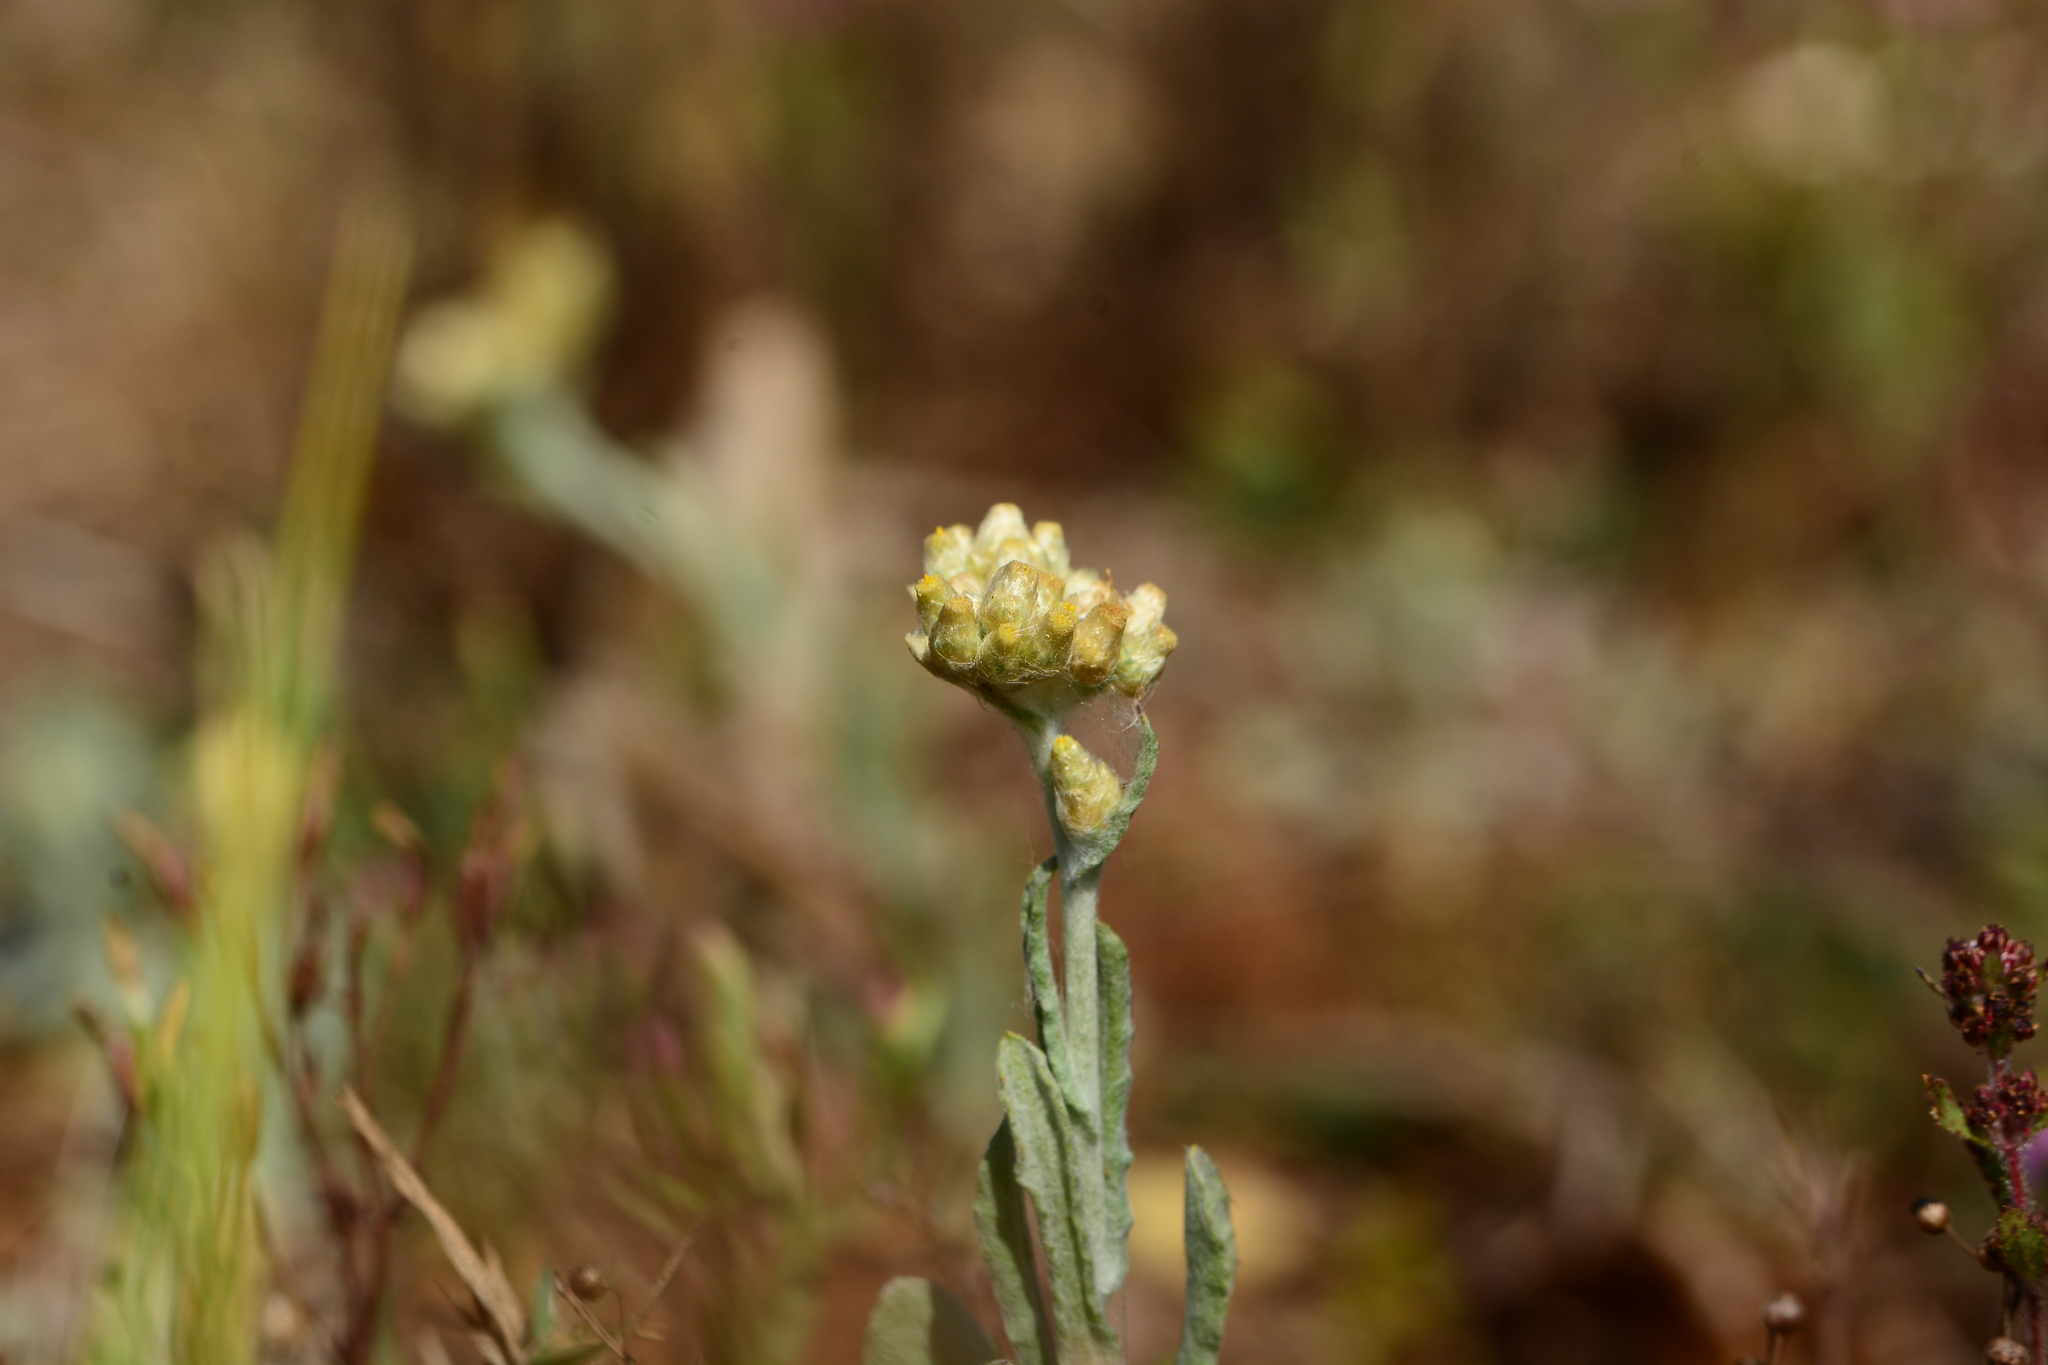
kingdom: Plantae
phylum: Tracheophyta
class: Magnoliopsida
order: Asterales
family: Asteraceae
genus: Helichrysum
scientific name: Helichrysum luteoalbum
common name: Daisy
